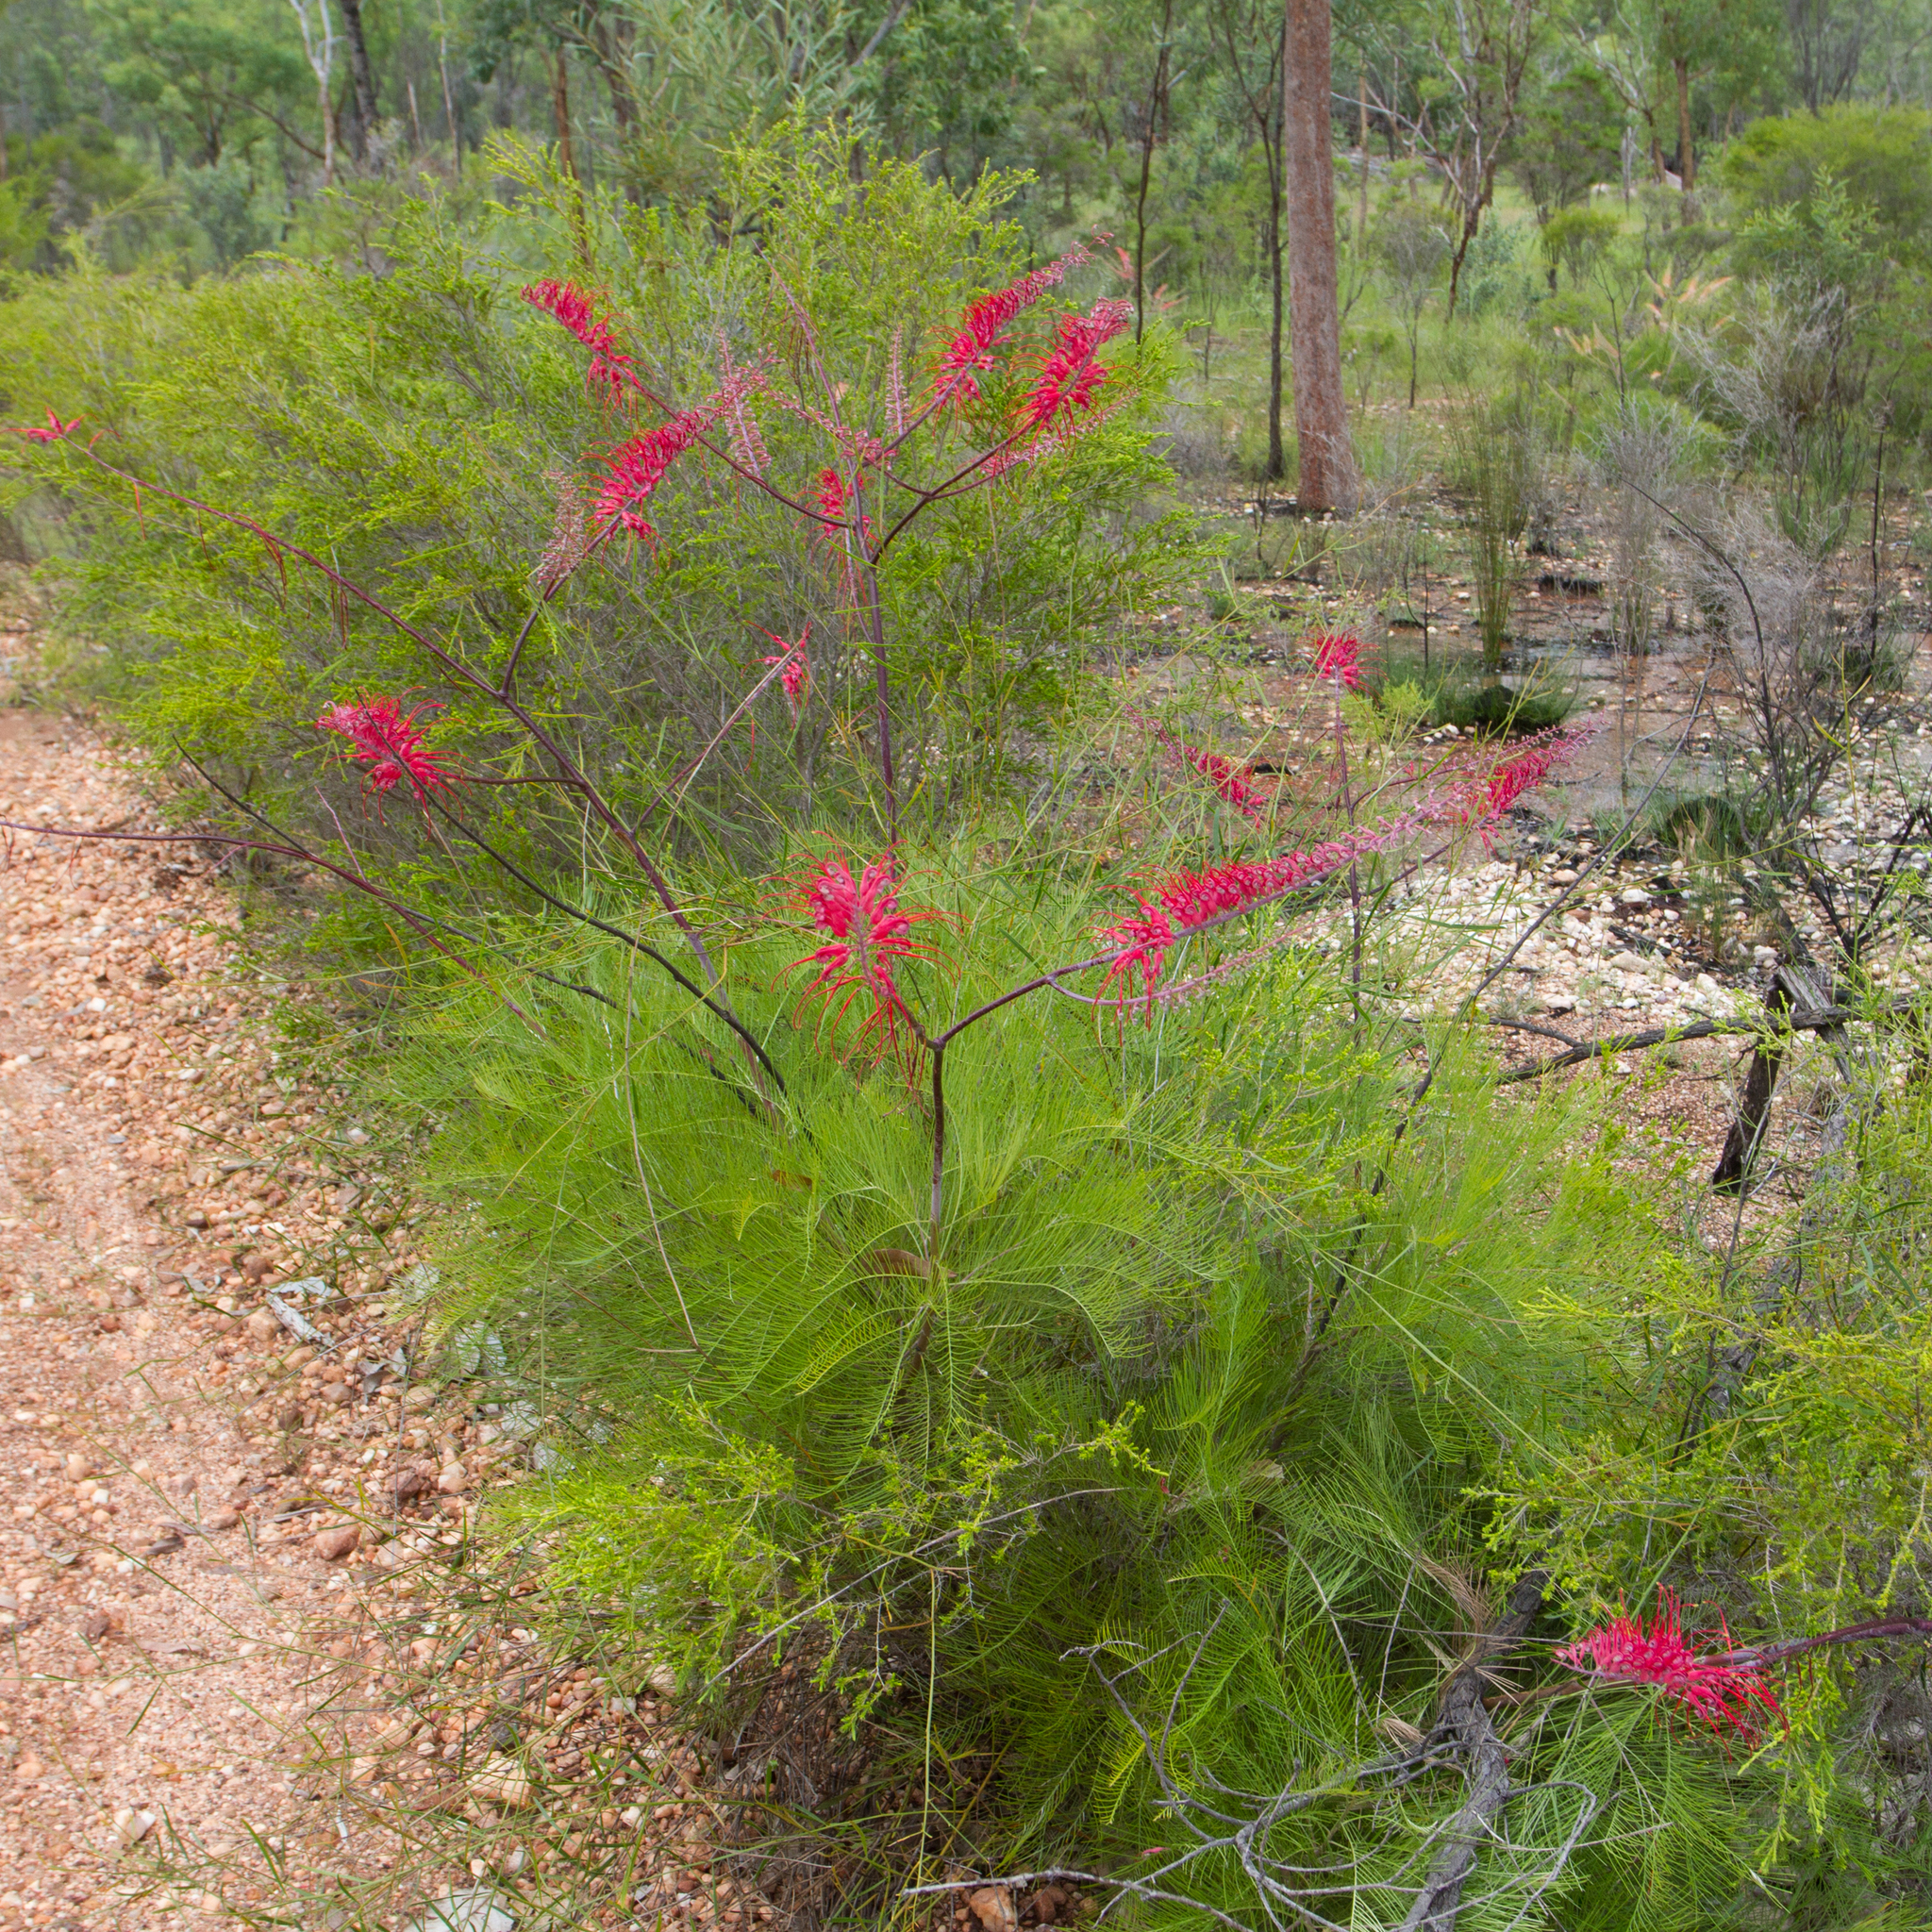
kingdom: Plantae
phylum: Tracheophyta
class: Magnoliopsida
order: Proteales
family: Proteaceae
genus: Grevillea
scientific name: Grevillea dryandri
